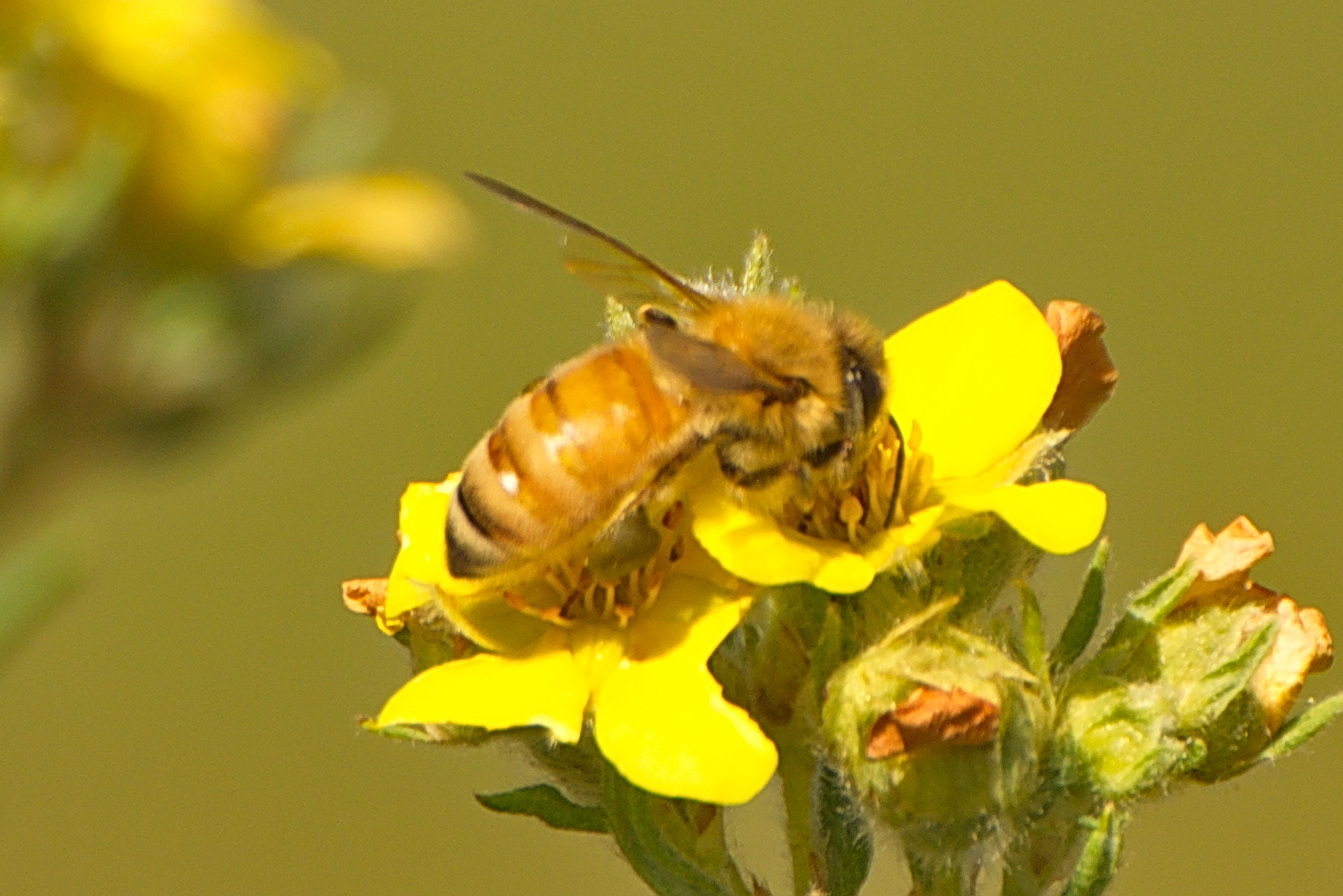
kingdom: Animalia
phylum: Arthropoda
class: Insecta
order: Hymenoptera
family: Apidae
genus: Apis
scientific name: Apis mellifera
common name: Honey bee
